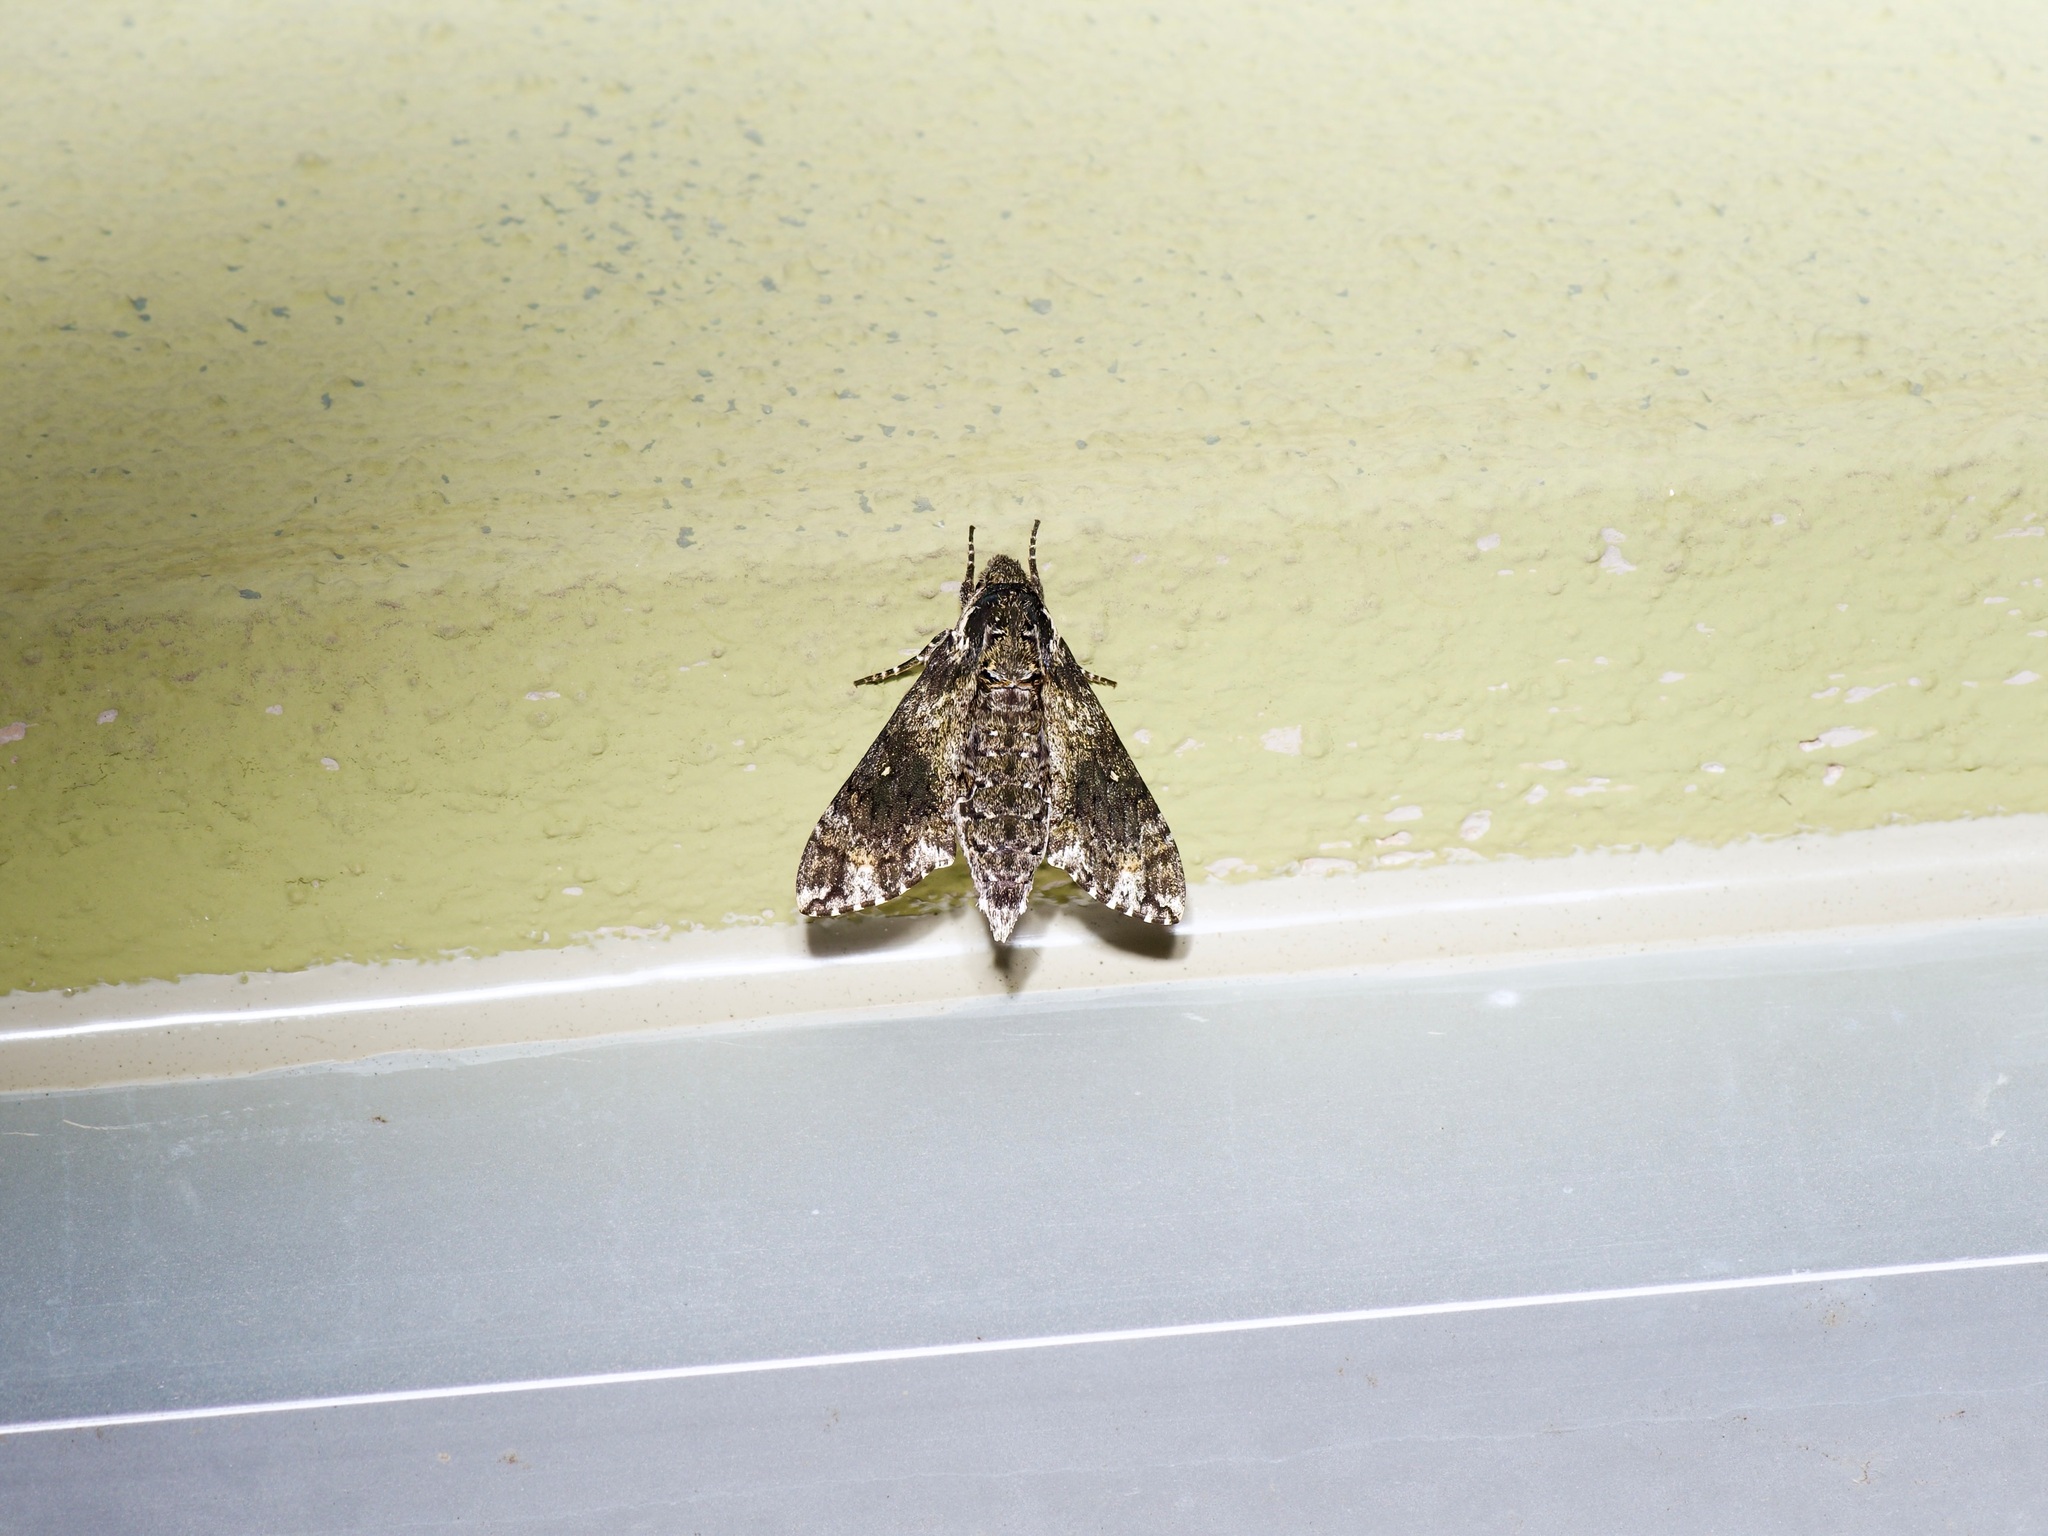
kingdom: Animalia
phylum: Arthropoda
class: Insecta
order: Lepidoptera
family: Sphingidae
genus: Dolba
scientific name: Dolba hyloeus
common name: Pawpaw sphinx
